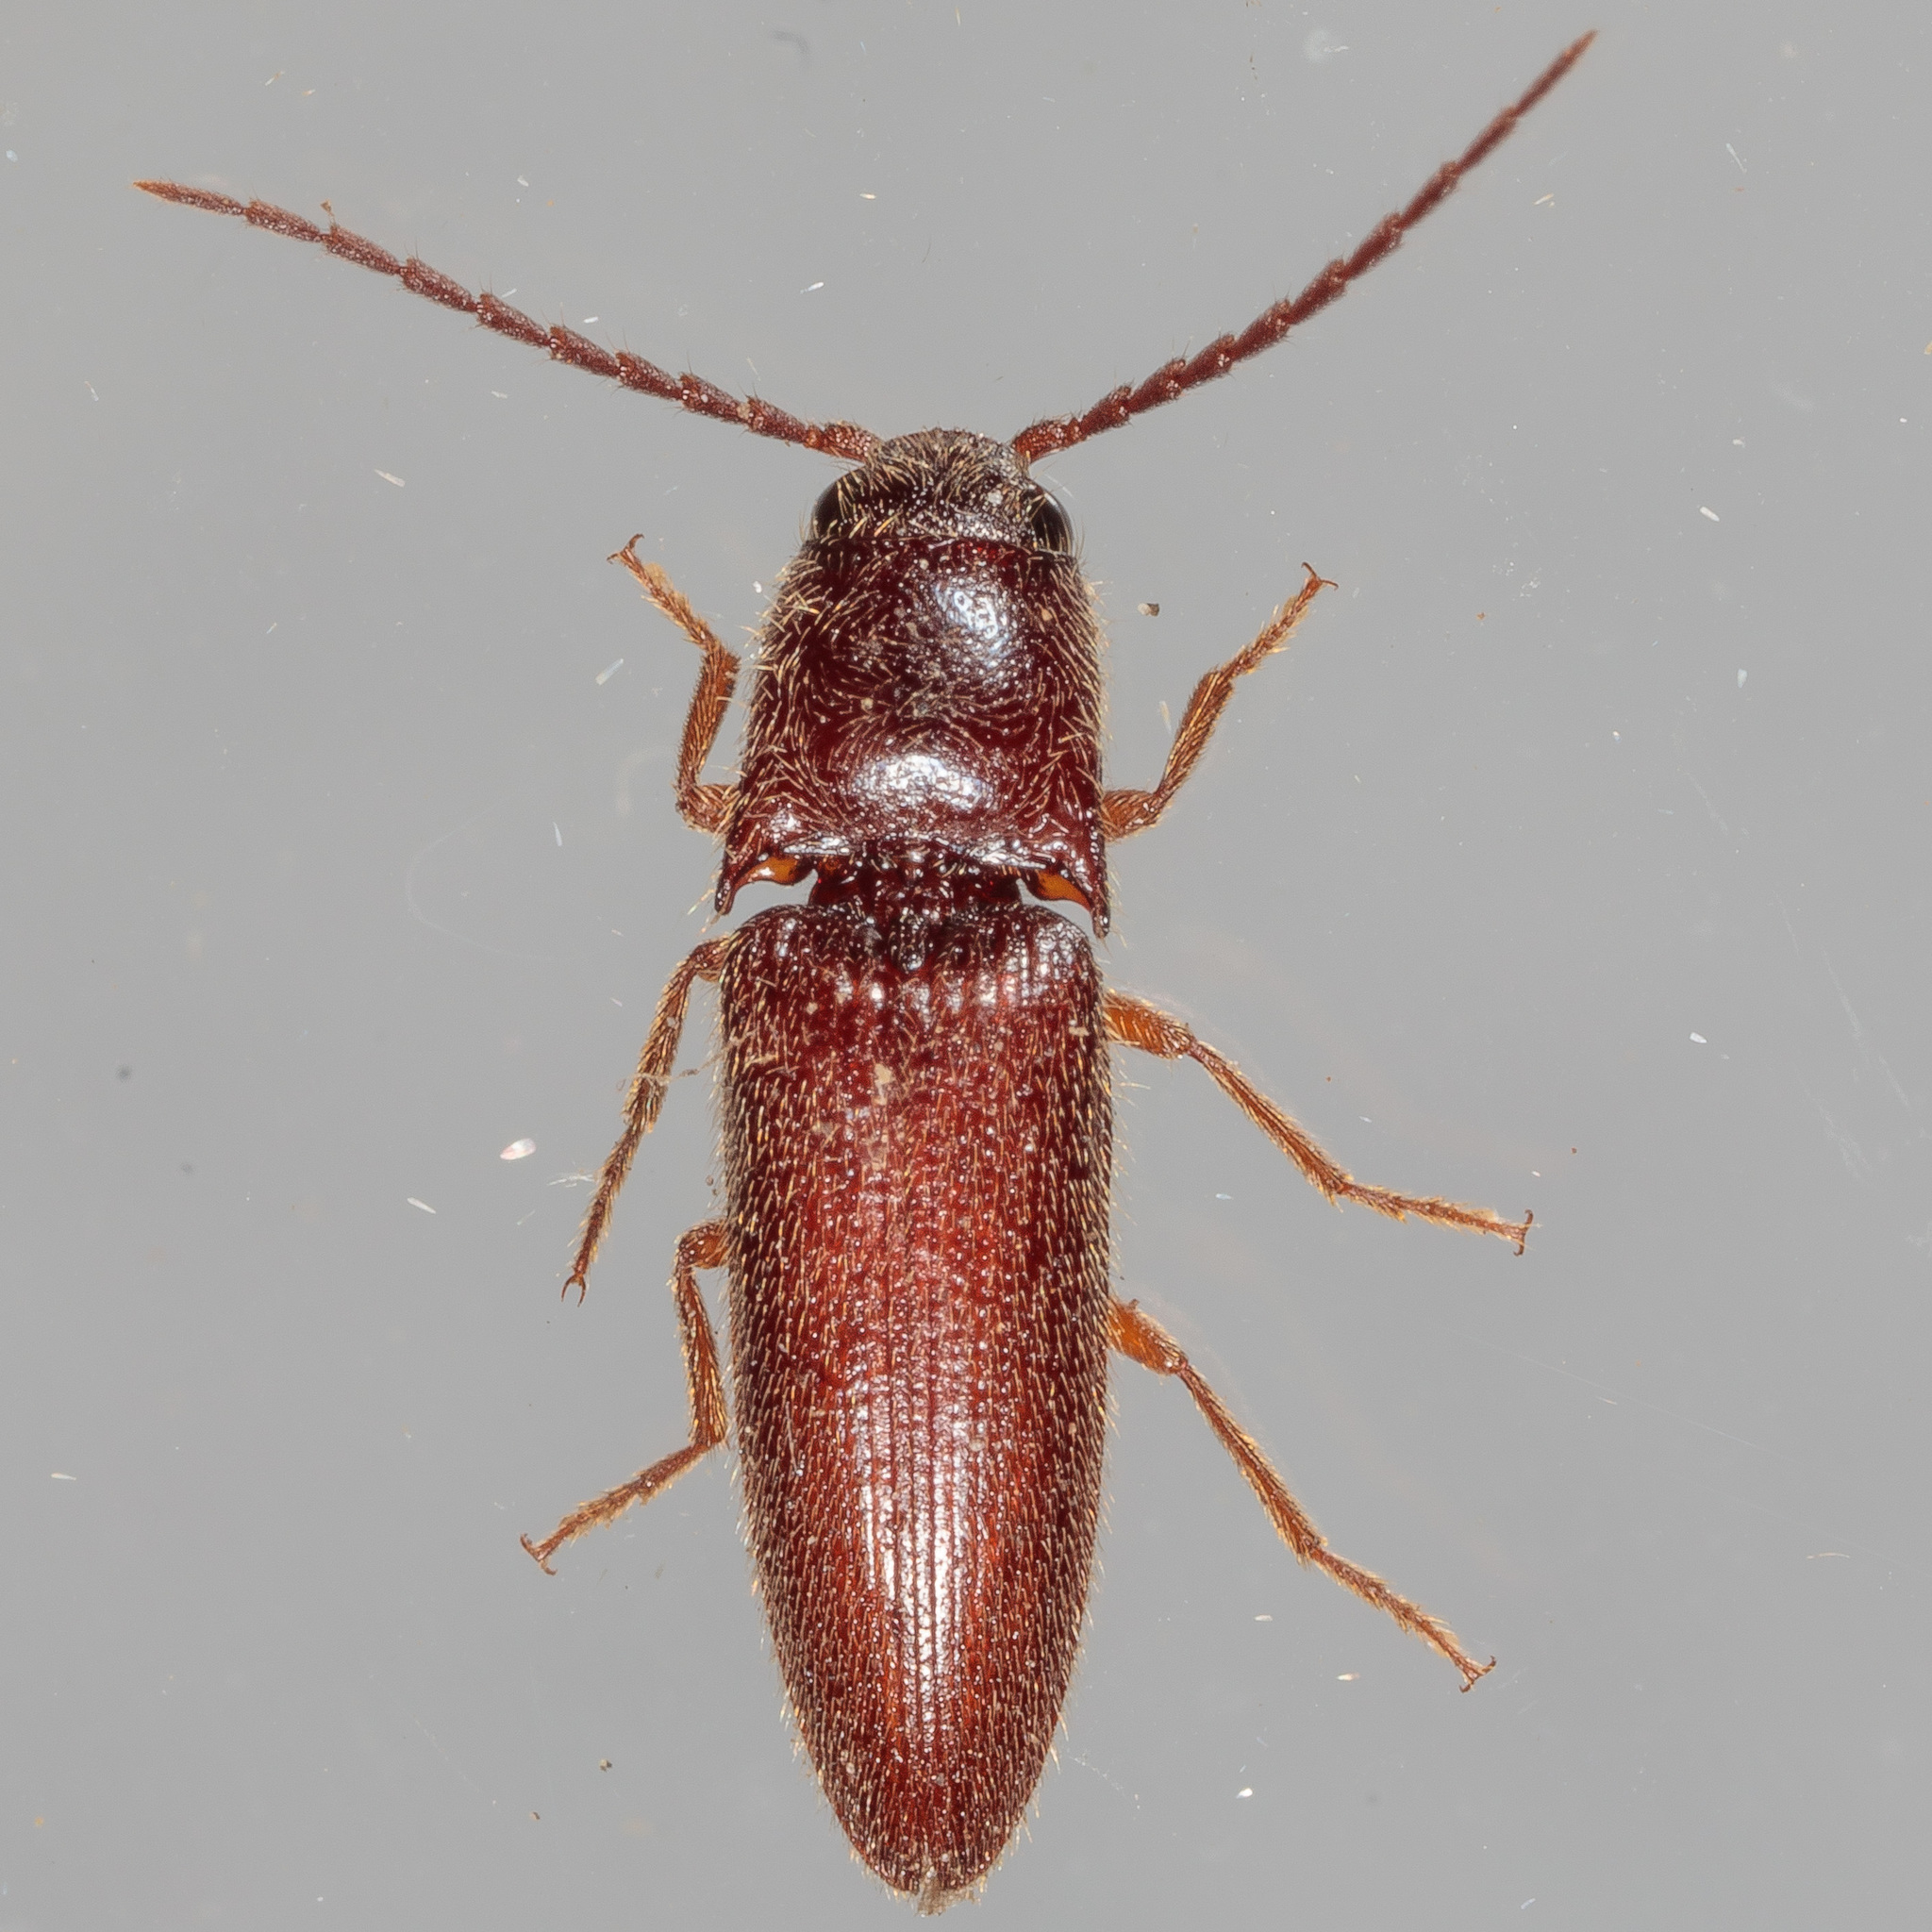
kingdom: Animalia
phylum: Arthropoda
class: Insecta
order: Coleoptera
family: Elateridae
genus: Dipropus
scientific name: Dipropus
